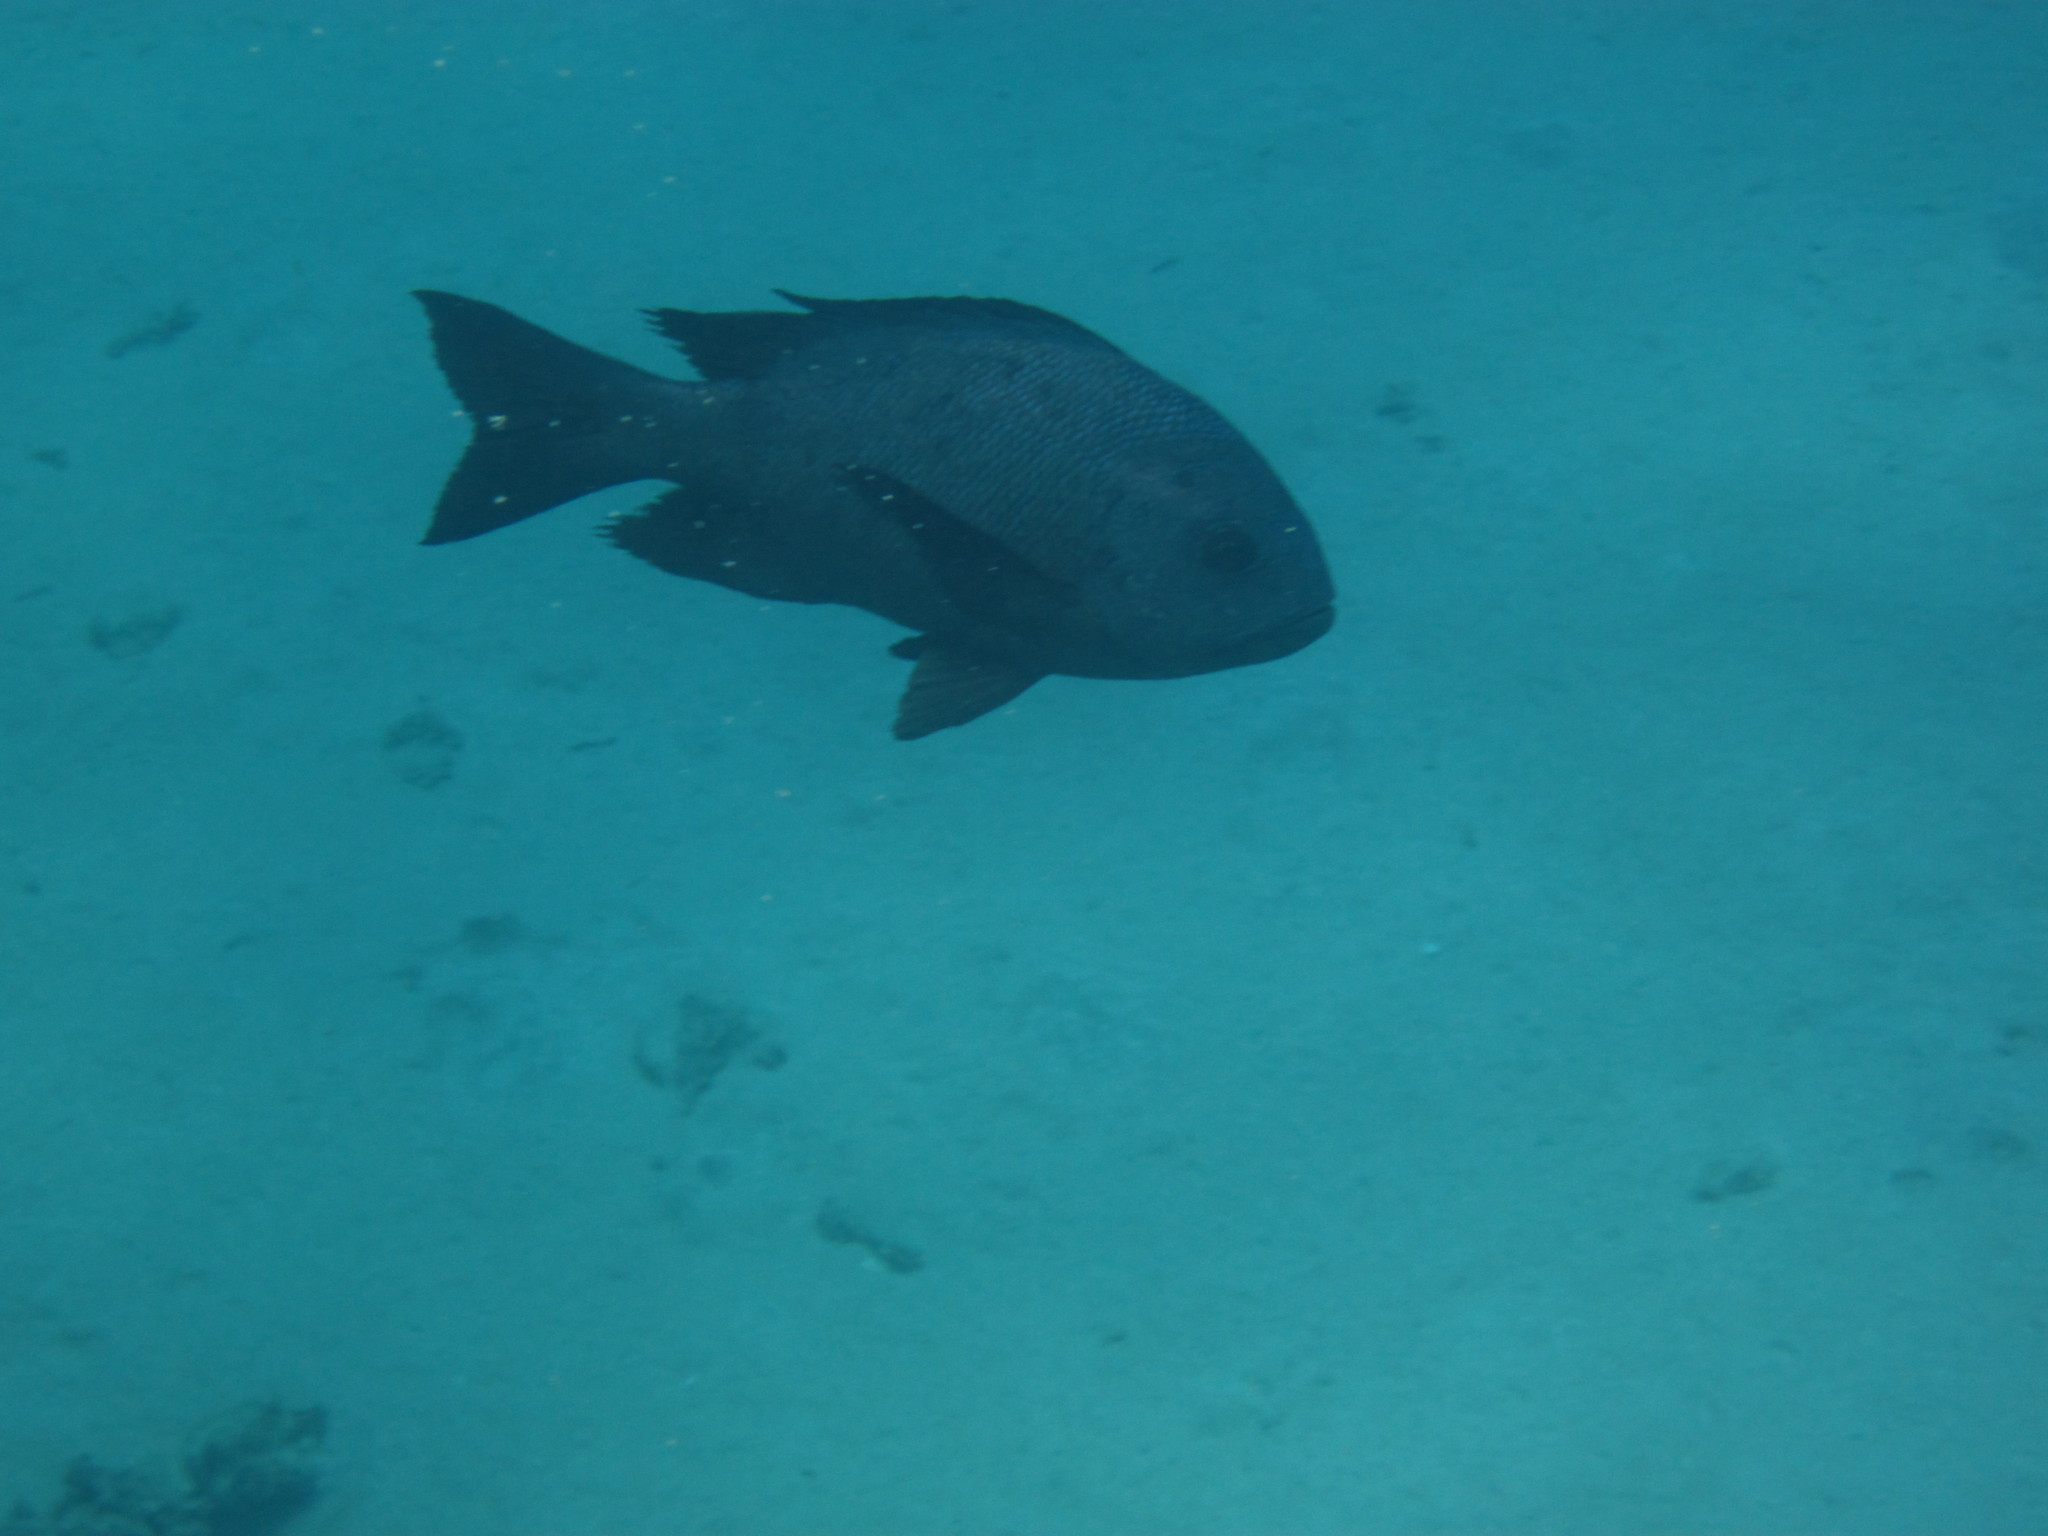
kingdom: Animalia
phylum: Chordata
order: Perciformes
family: Lutjanidae
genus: Macolor
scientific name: Macolor niger
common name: Black snapper
